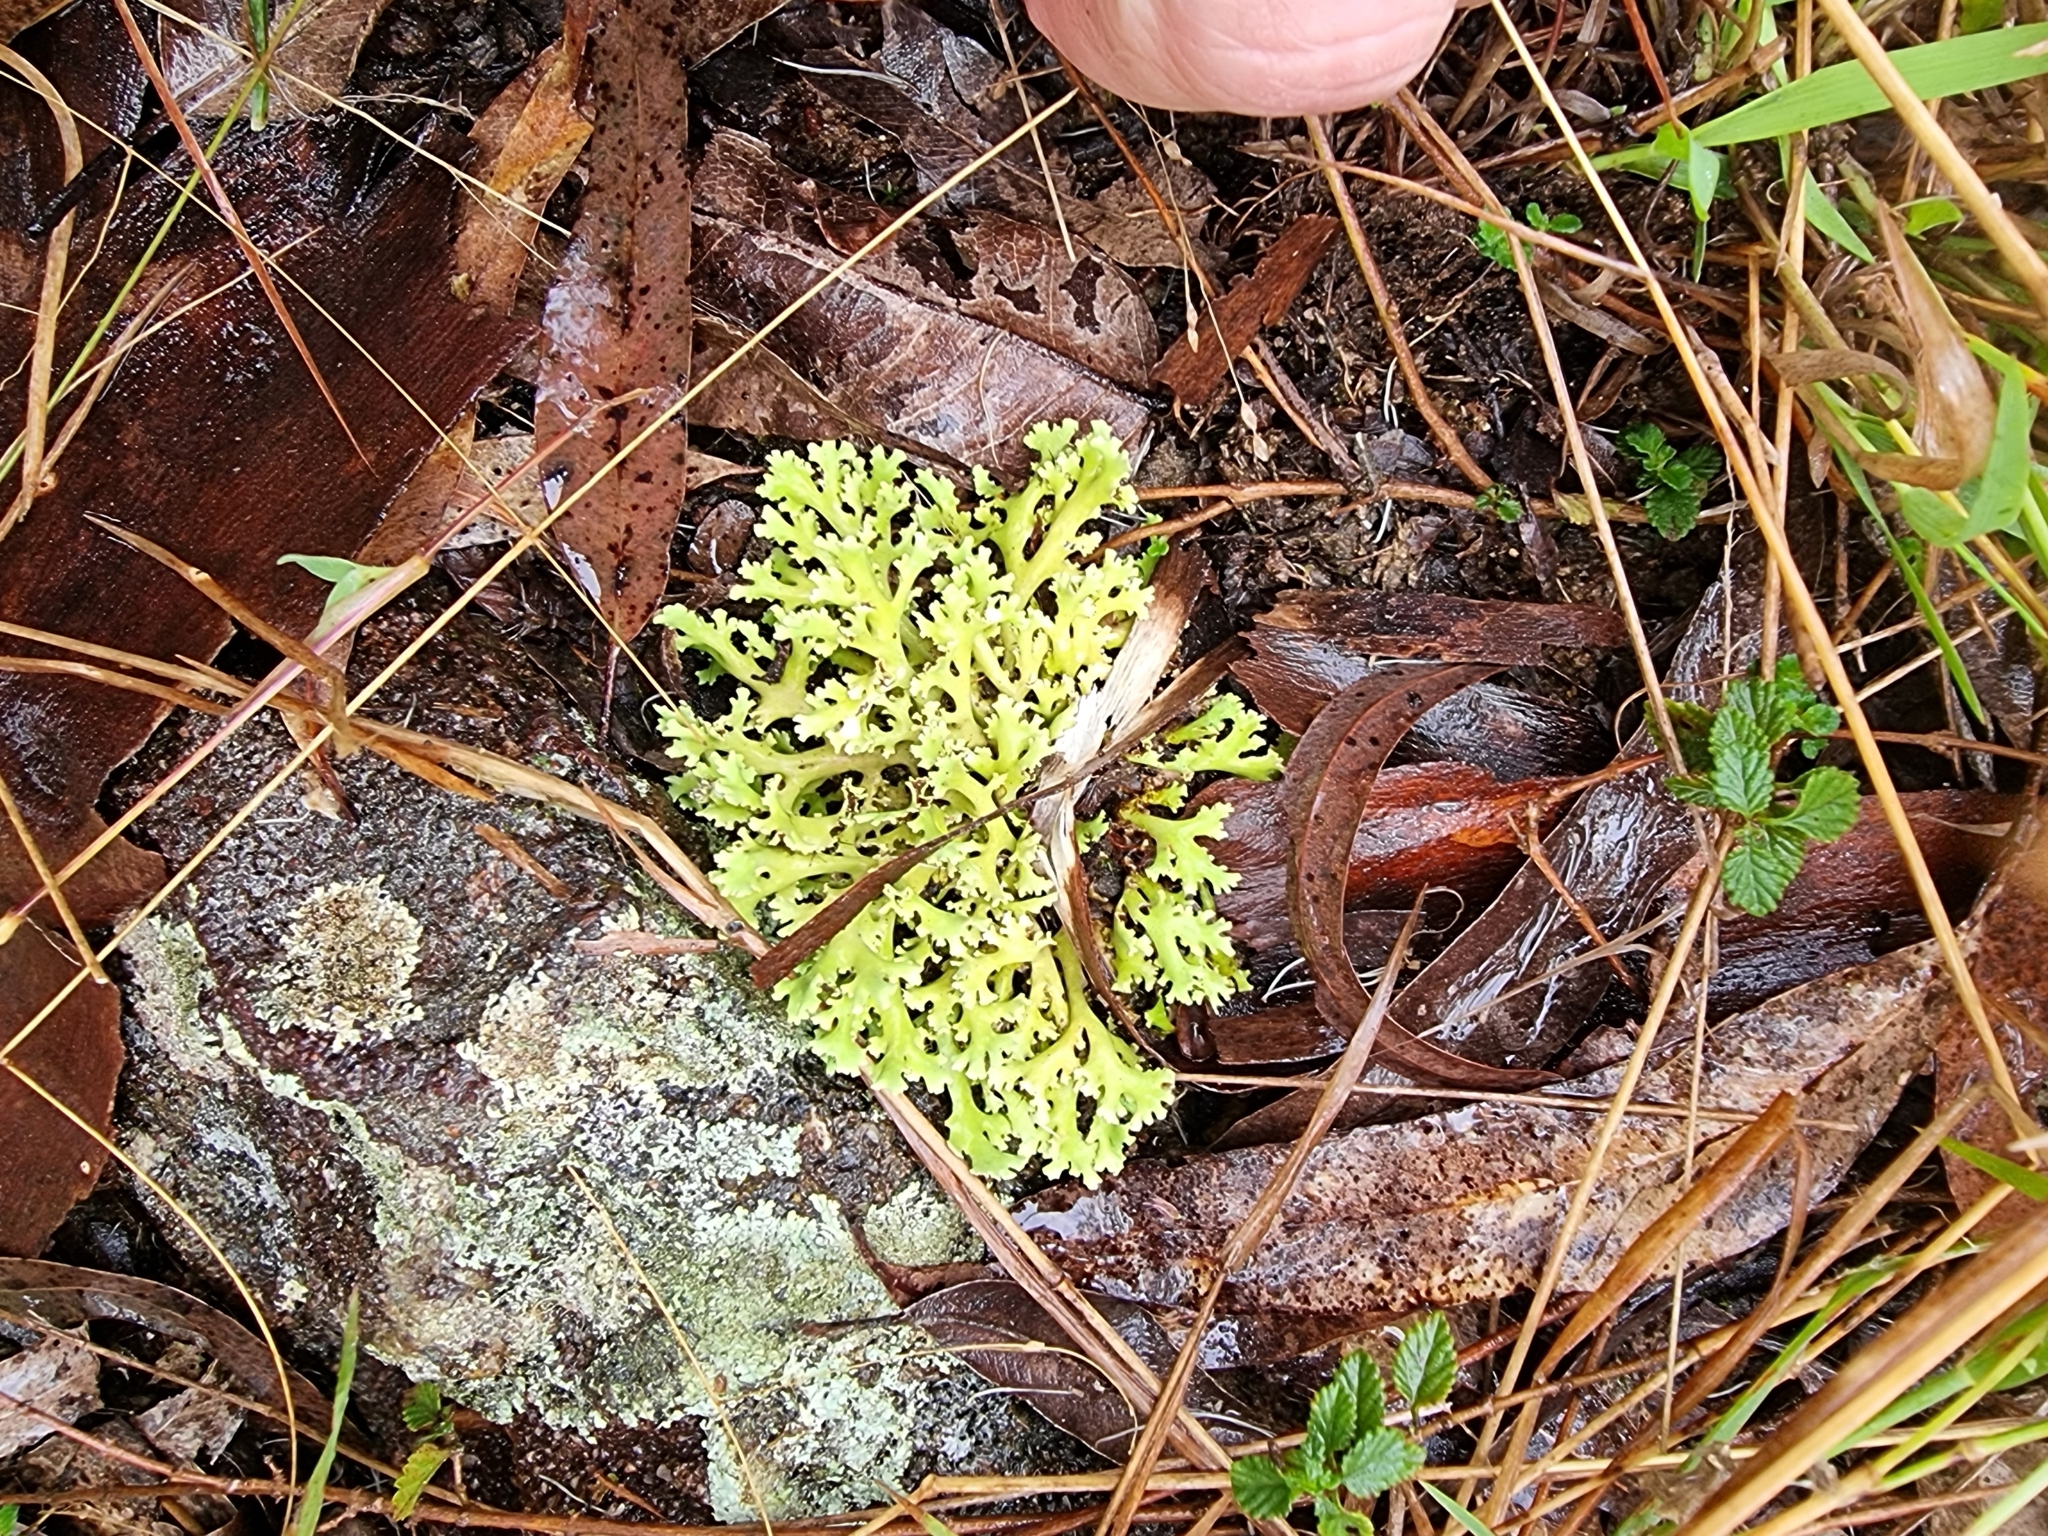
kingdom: Fungi
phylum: Ascomycota
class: Lecanoromycetes
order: Lecanorales
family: Cladoniaceae
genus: Cladia
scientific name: Cladia muelleri
